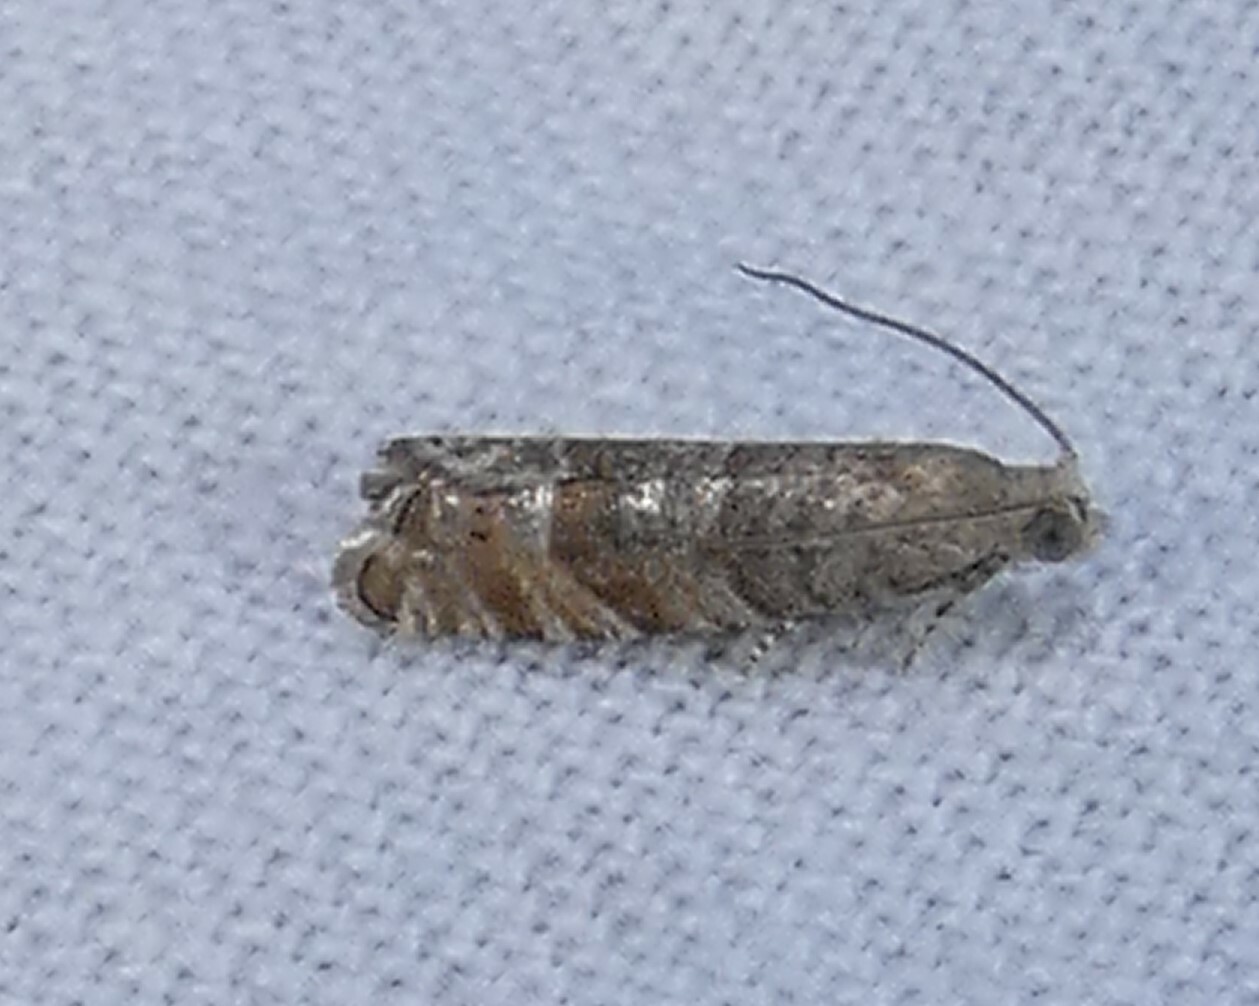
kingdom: Animalia
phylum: Arthropoda
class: Insecta
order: Lepidoptera
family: Tortricidae
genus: Cydia
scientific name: Cydia marita
